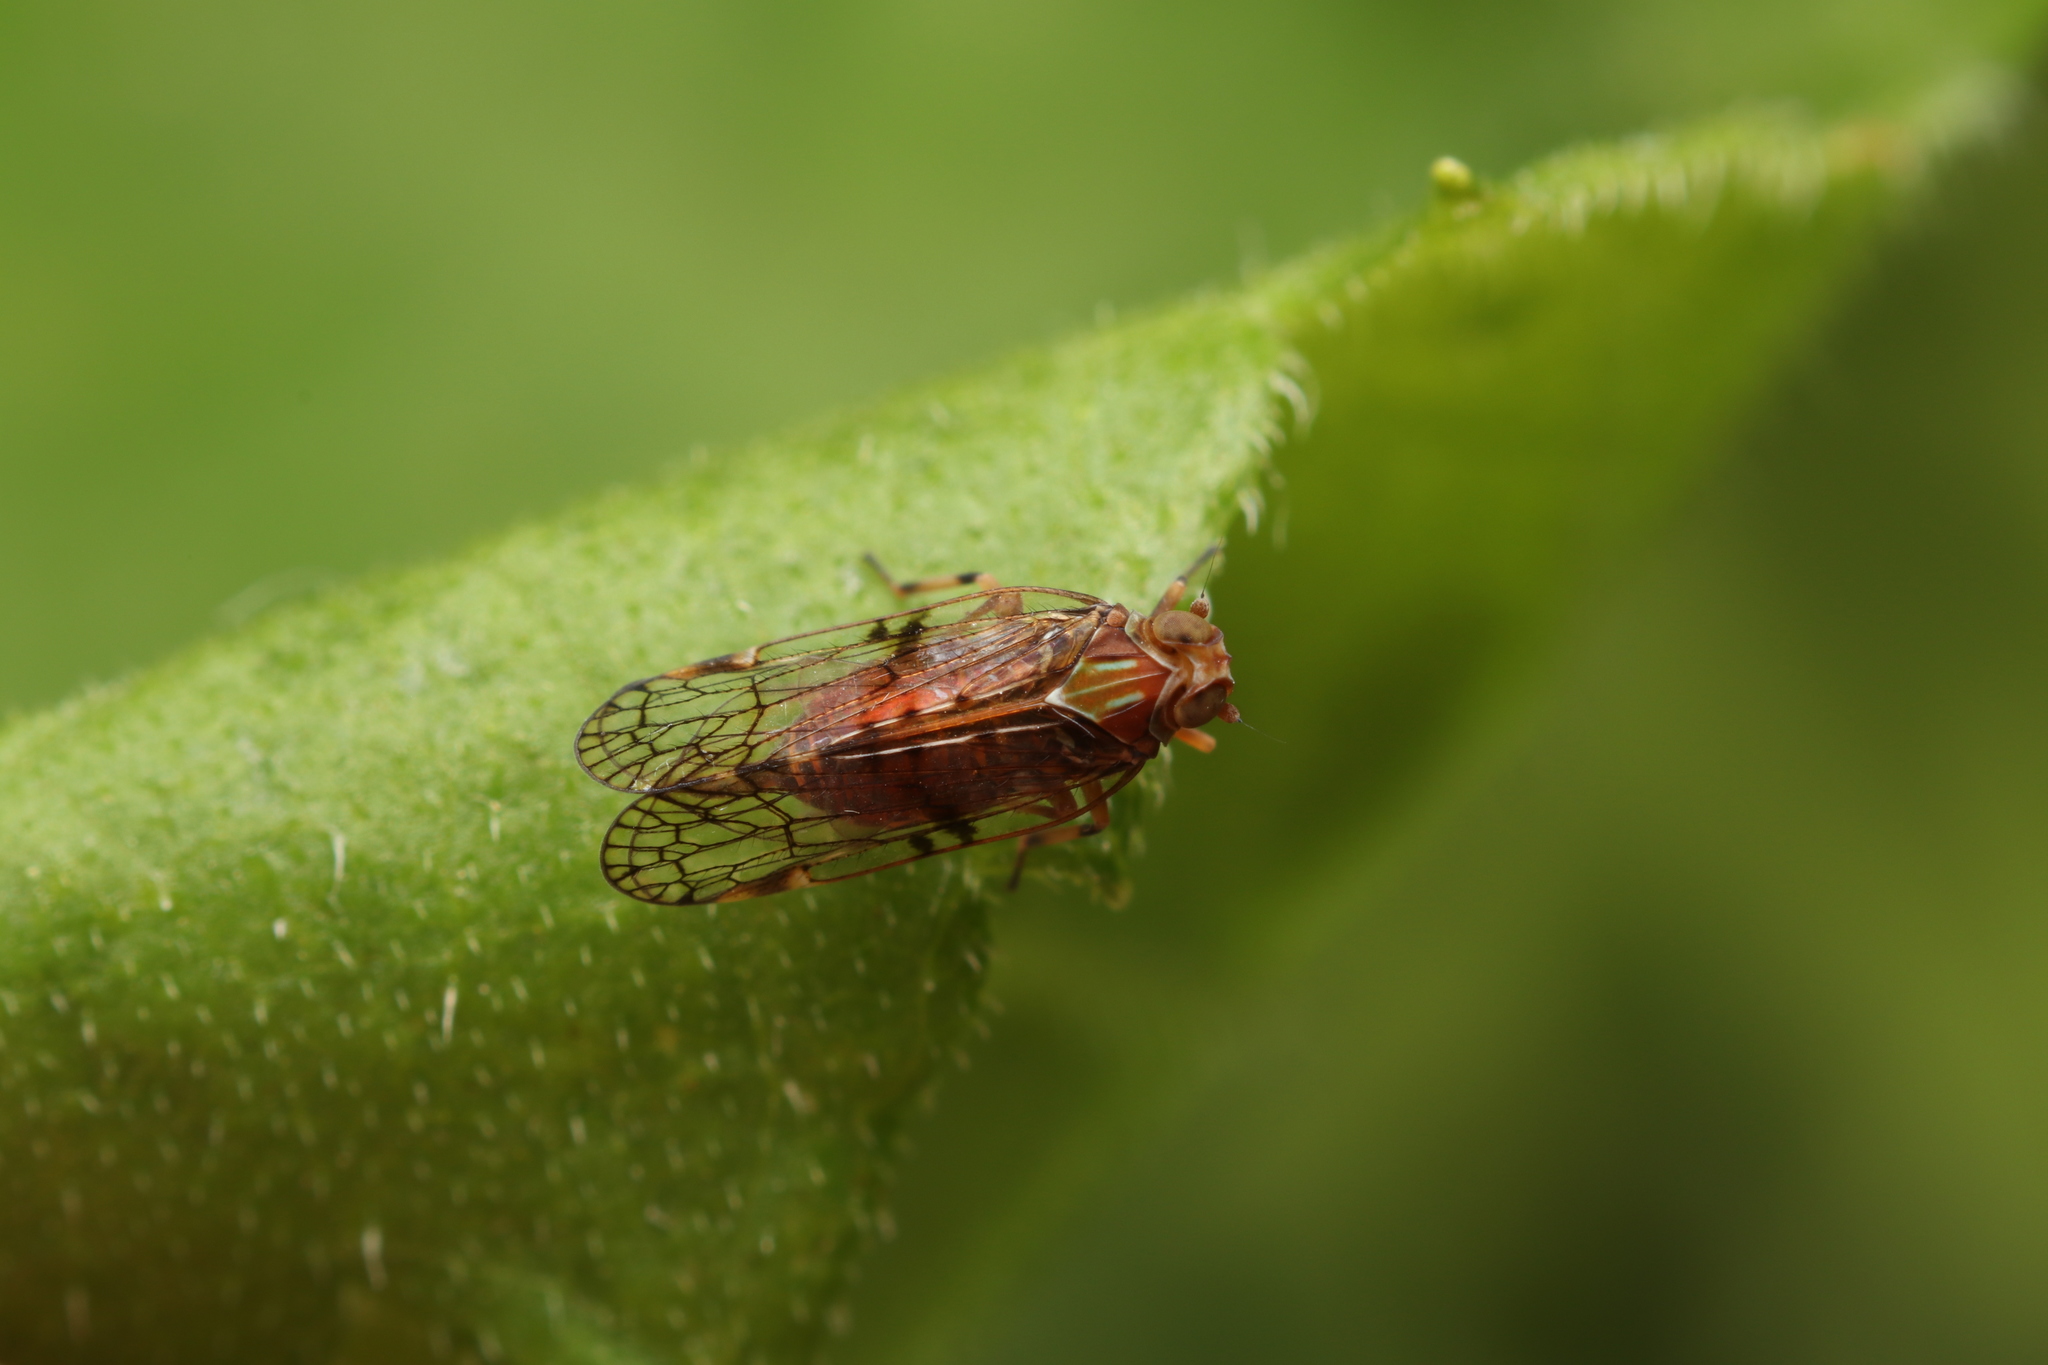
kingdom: Animalia
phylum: Arthropoda
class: Insecta
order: Hemiptera
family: Cixiidae
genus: Koroana
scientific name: Koroana rufifrons
